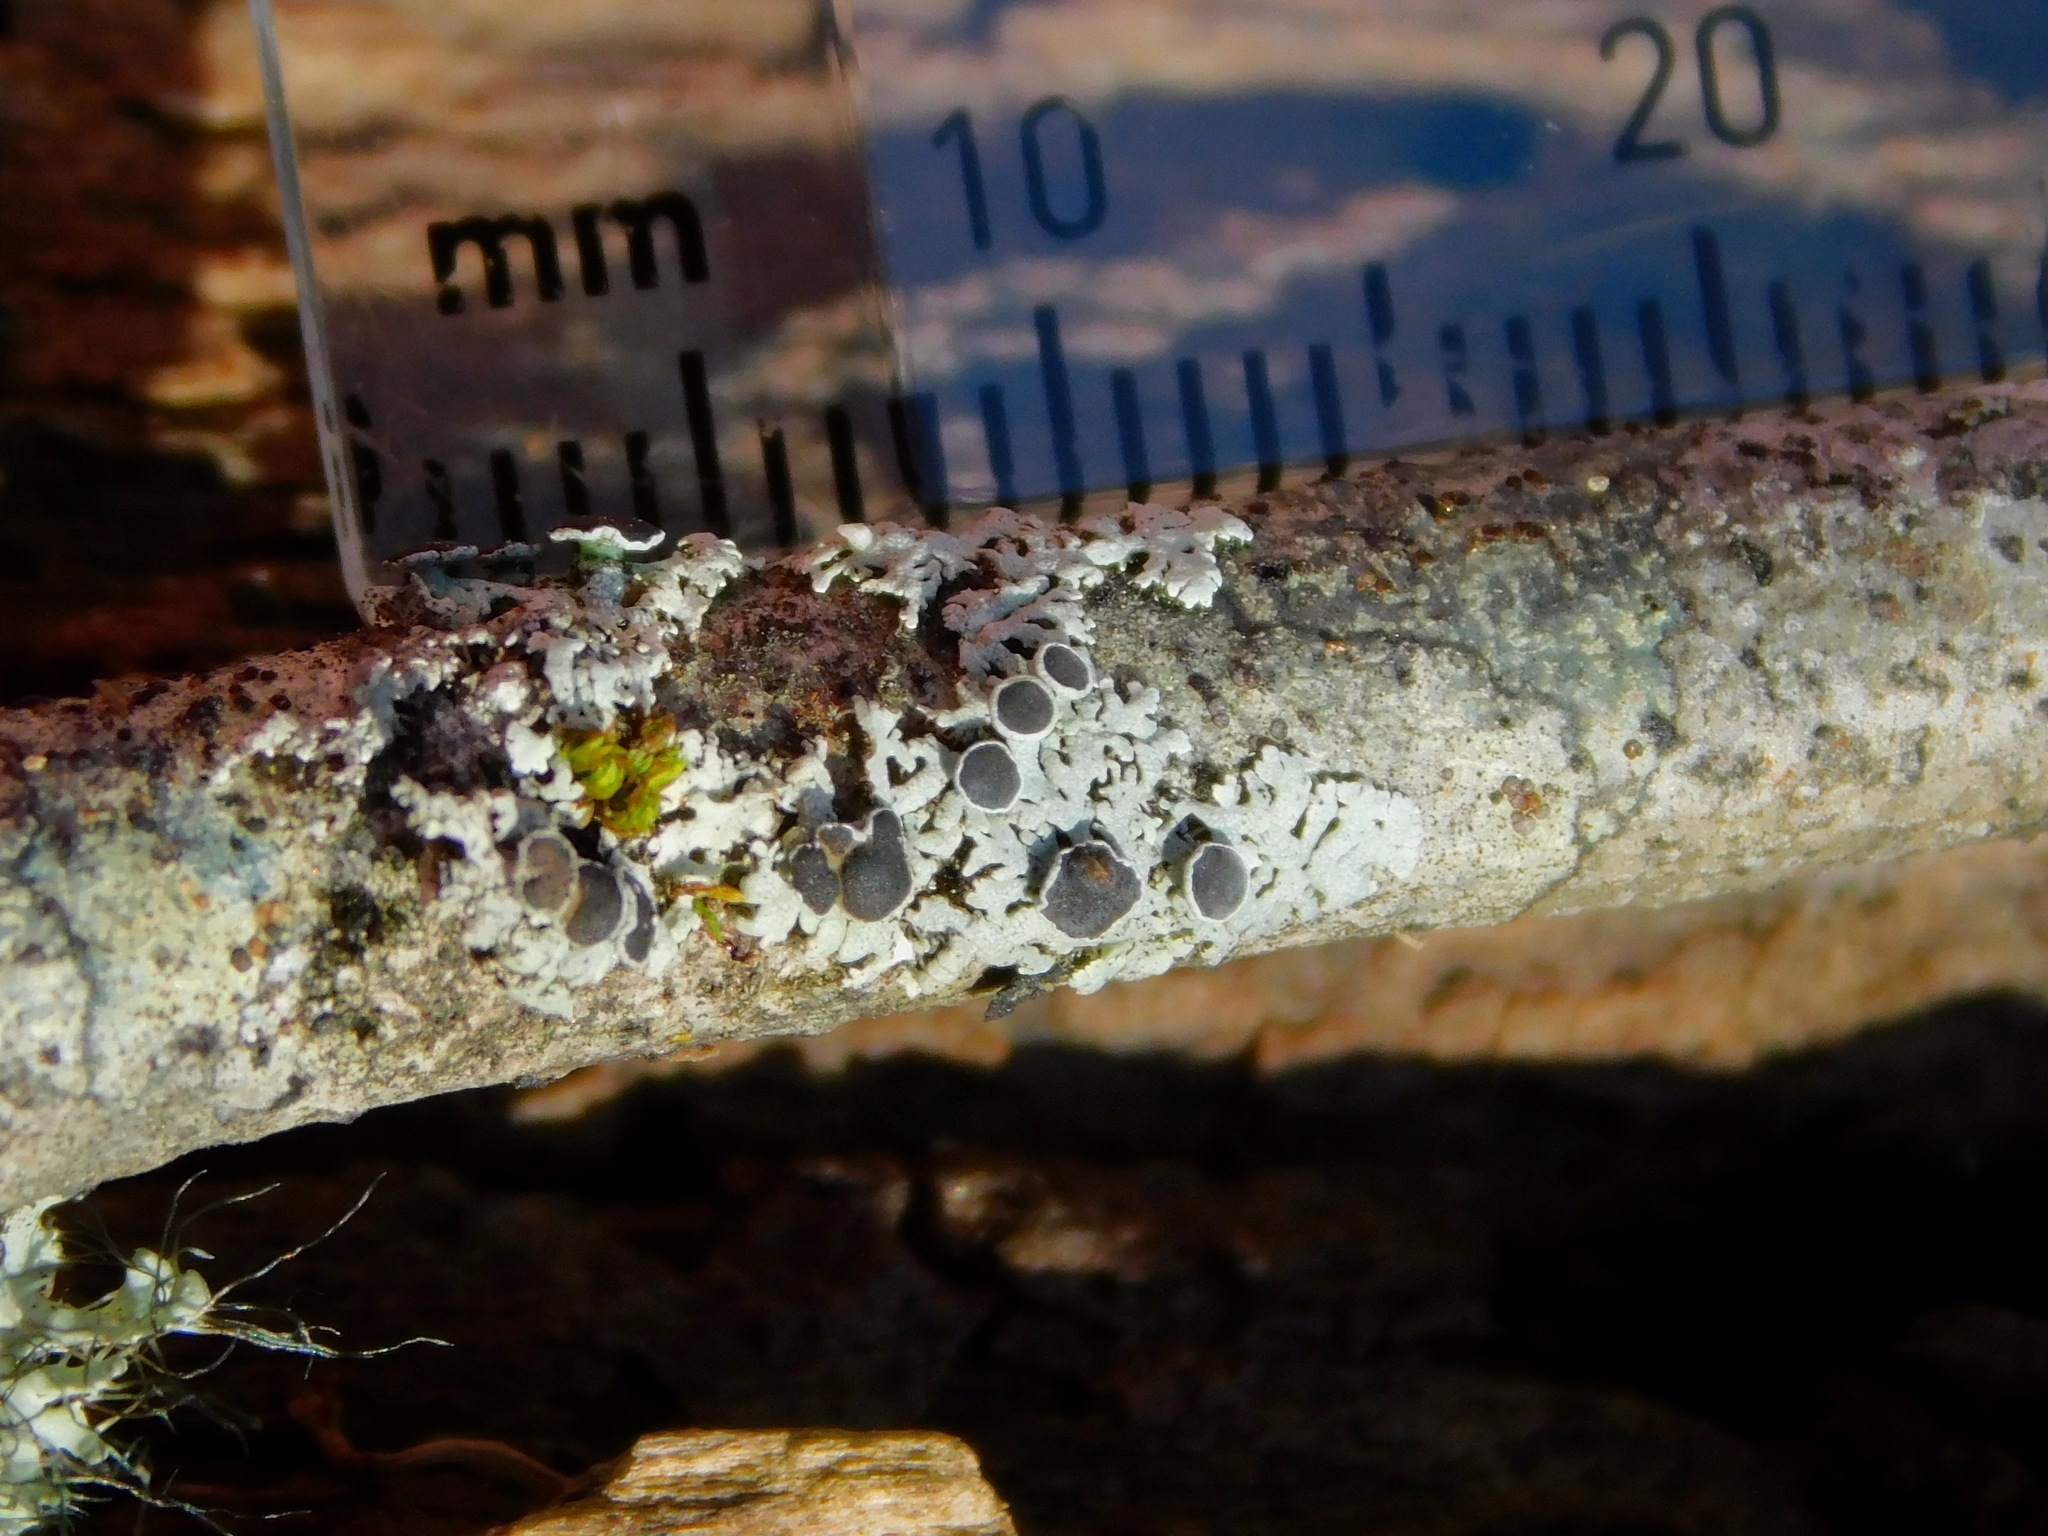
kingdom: Fungi
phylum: Ascomycota
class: Lecanoromycetes
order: Caliciales
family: Physciaceae
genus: Physcia
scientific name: Physcia stellaris
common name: Star rosette lichen
